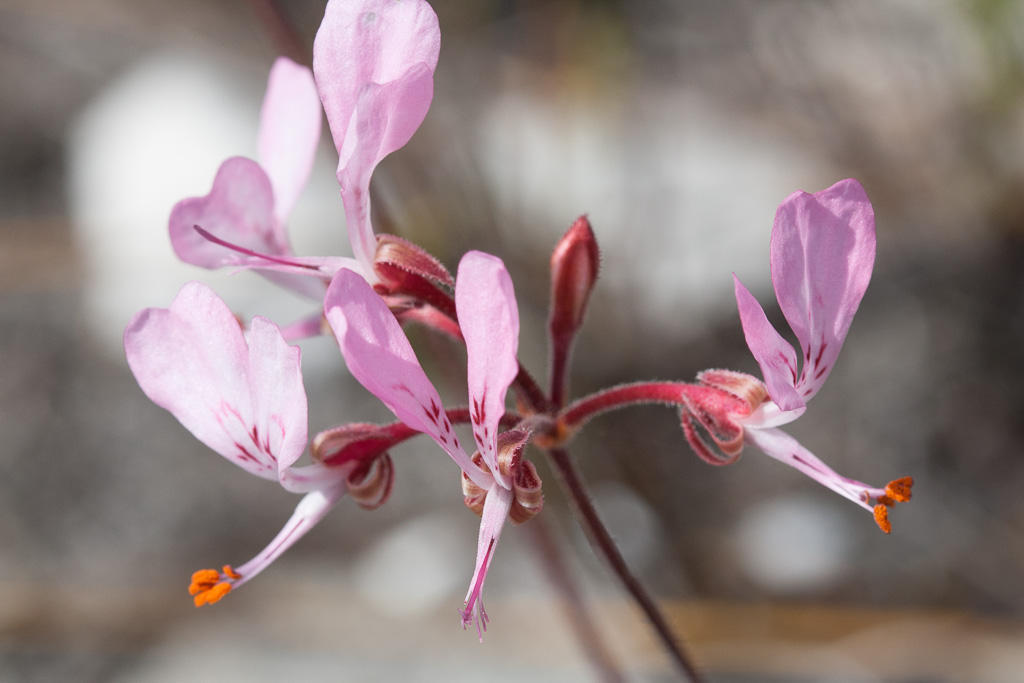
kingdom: Plantae
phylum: Tracheophyta
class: Magnoliopsida
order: Geraniales
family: Geraniaceae
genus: Pelargonium
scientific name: Pelargonium dipetalum
